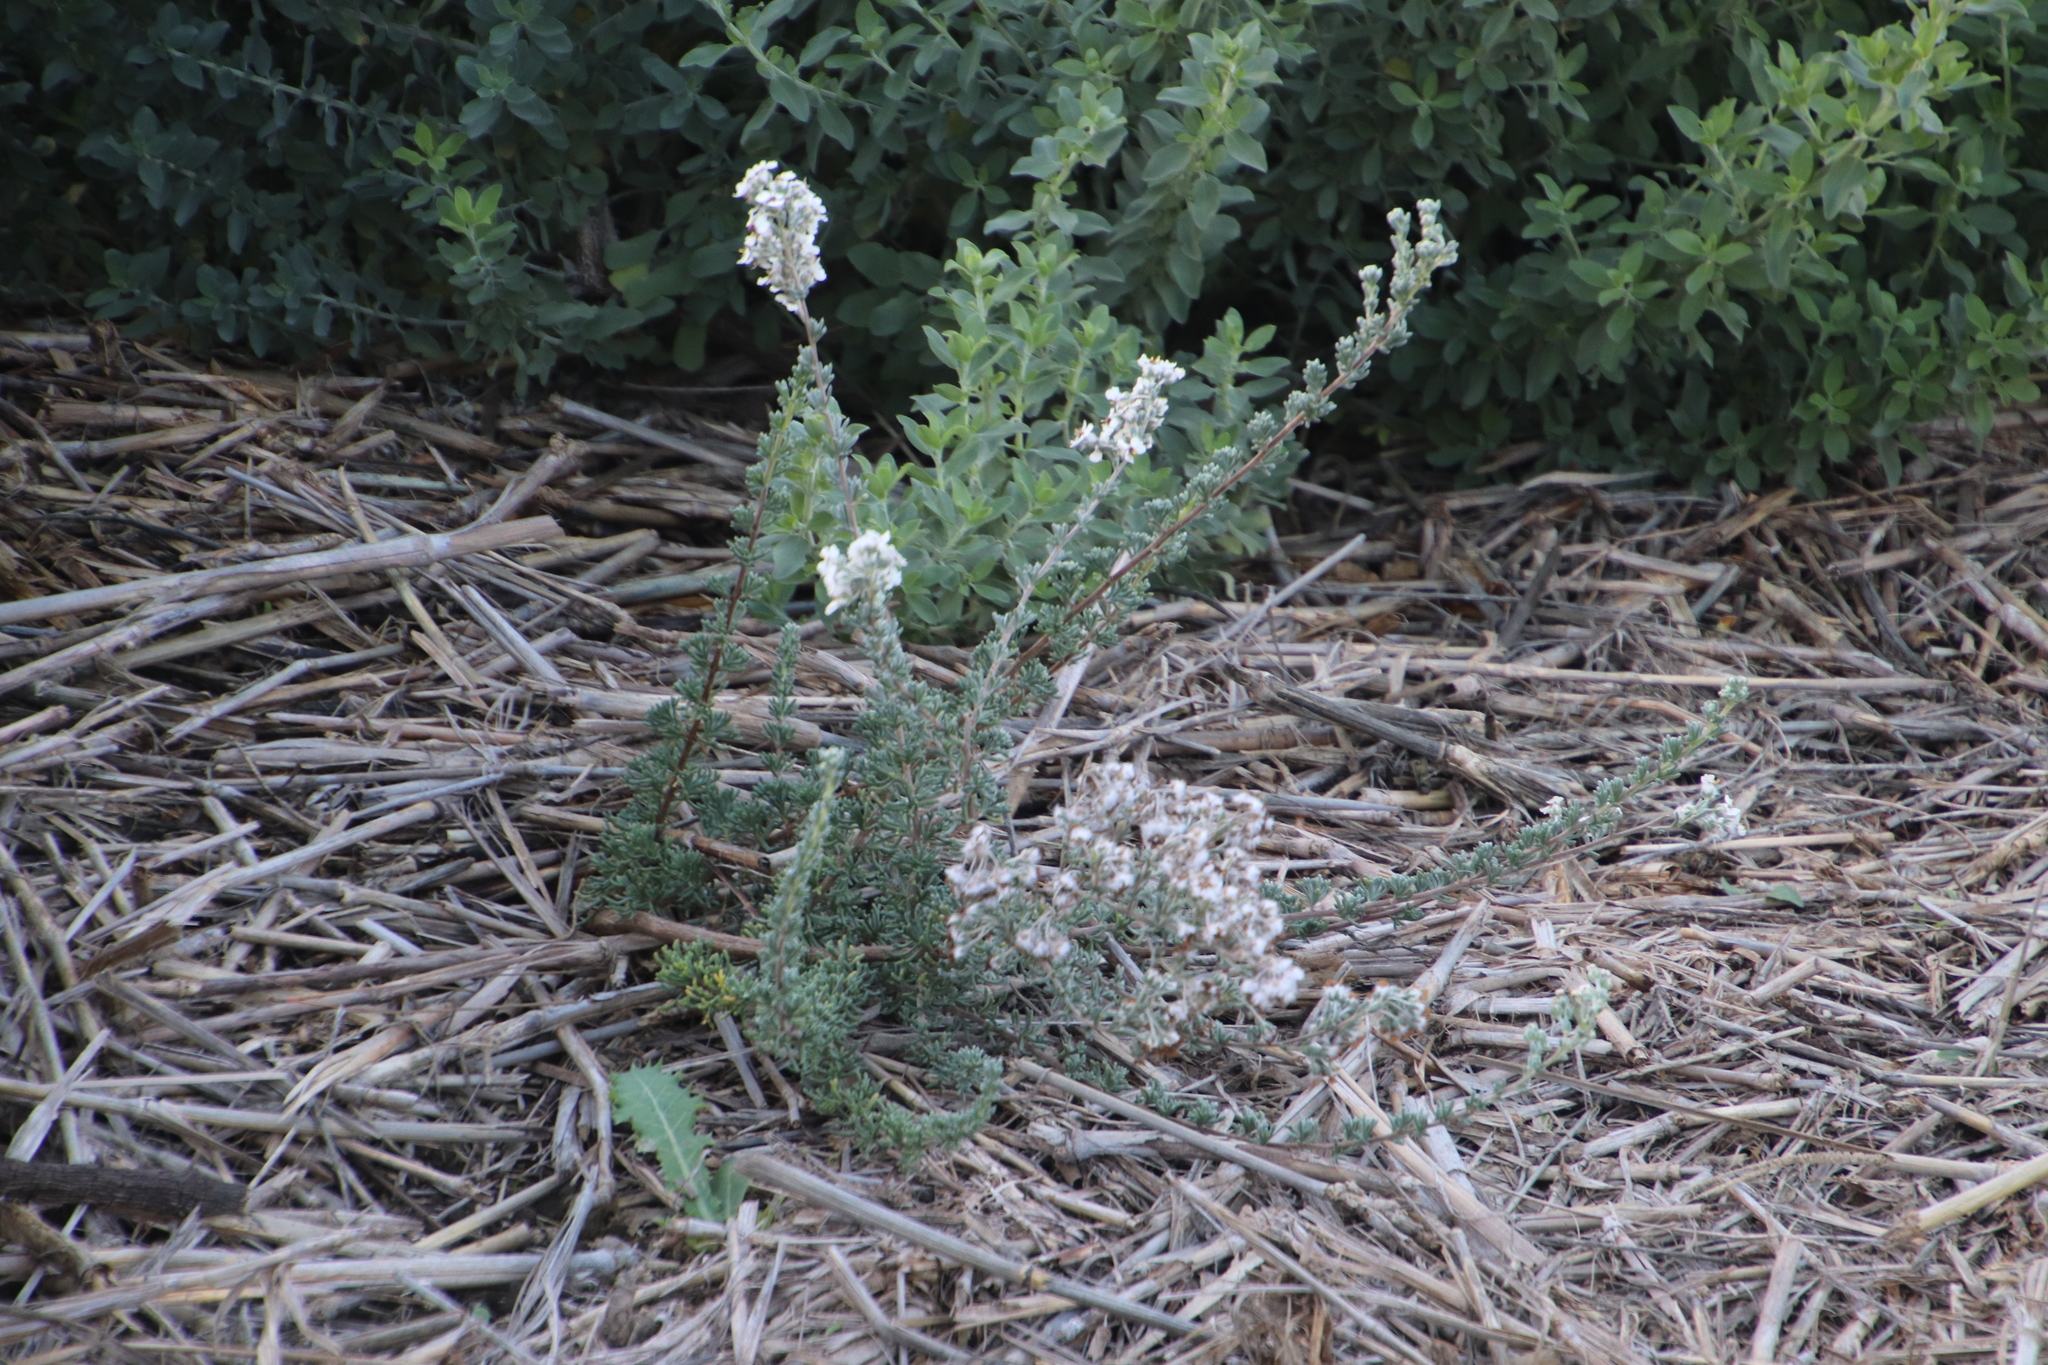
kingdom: Plantae
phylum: Tracheophyta
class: Magnoliopsida
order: Asterales
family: Asteraceae
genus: Eriocephalus
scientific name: Eriocephalus africanus
